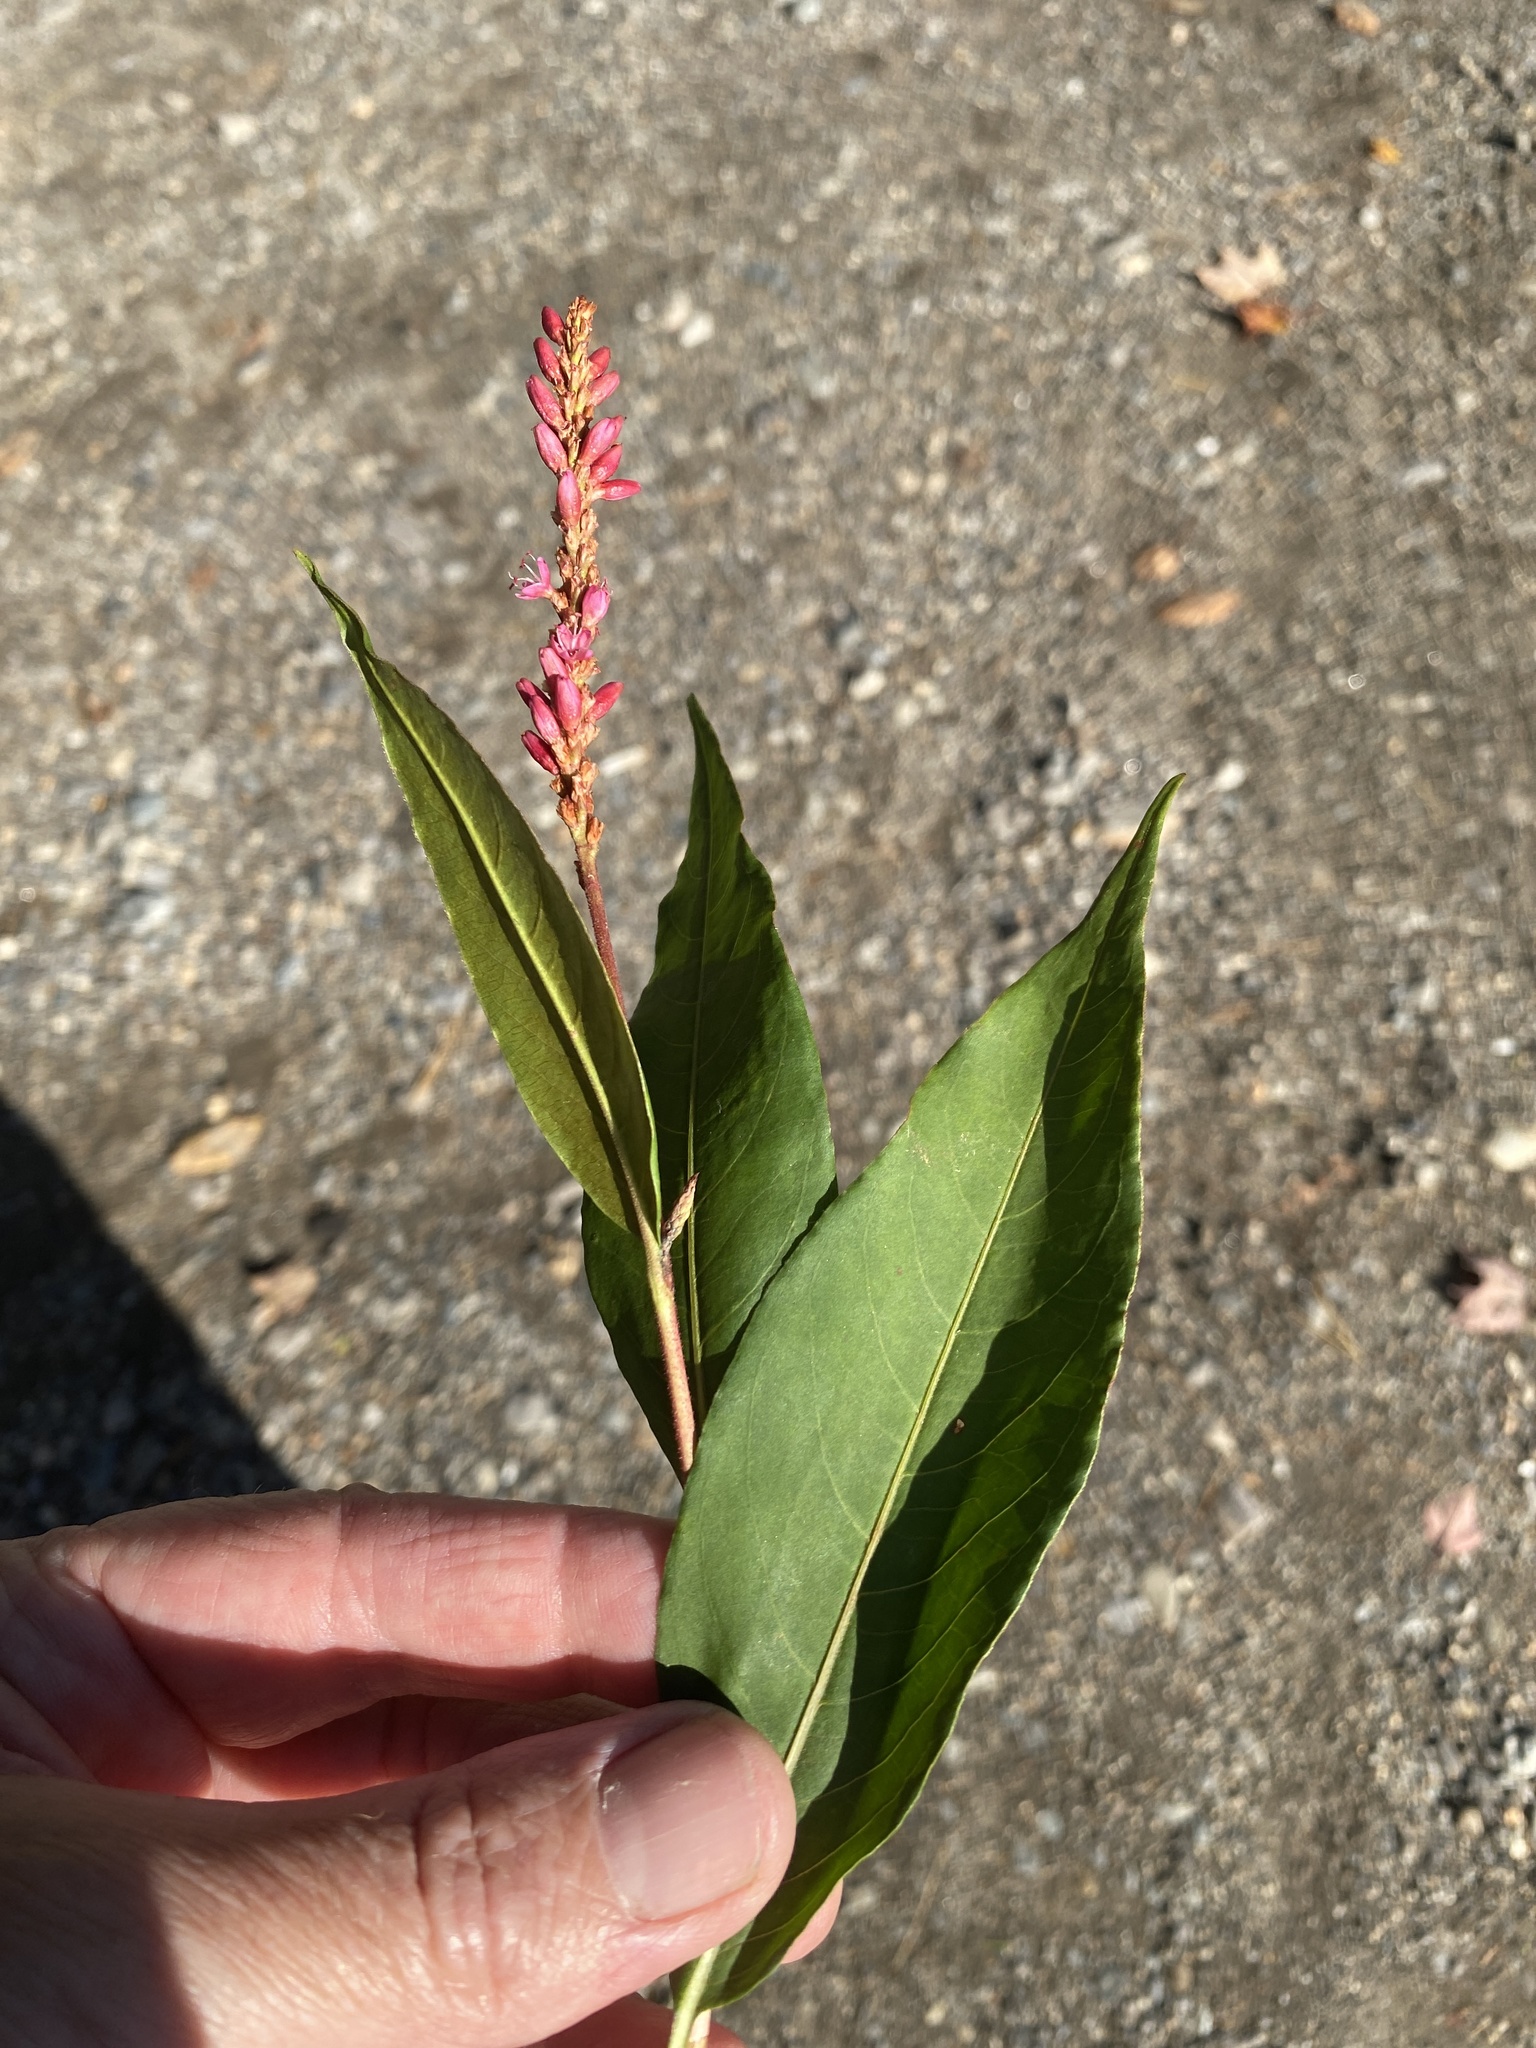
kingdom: Plantae
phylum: Tracheophyta
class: Magnoliopsida
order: Caryophyllales
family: Polygonaceae
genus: Persicaria
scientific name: Persicaria amphibia
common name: Amphibious bistort
